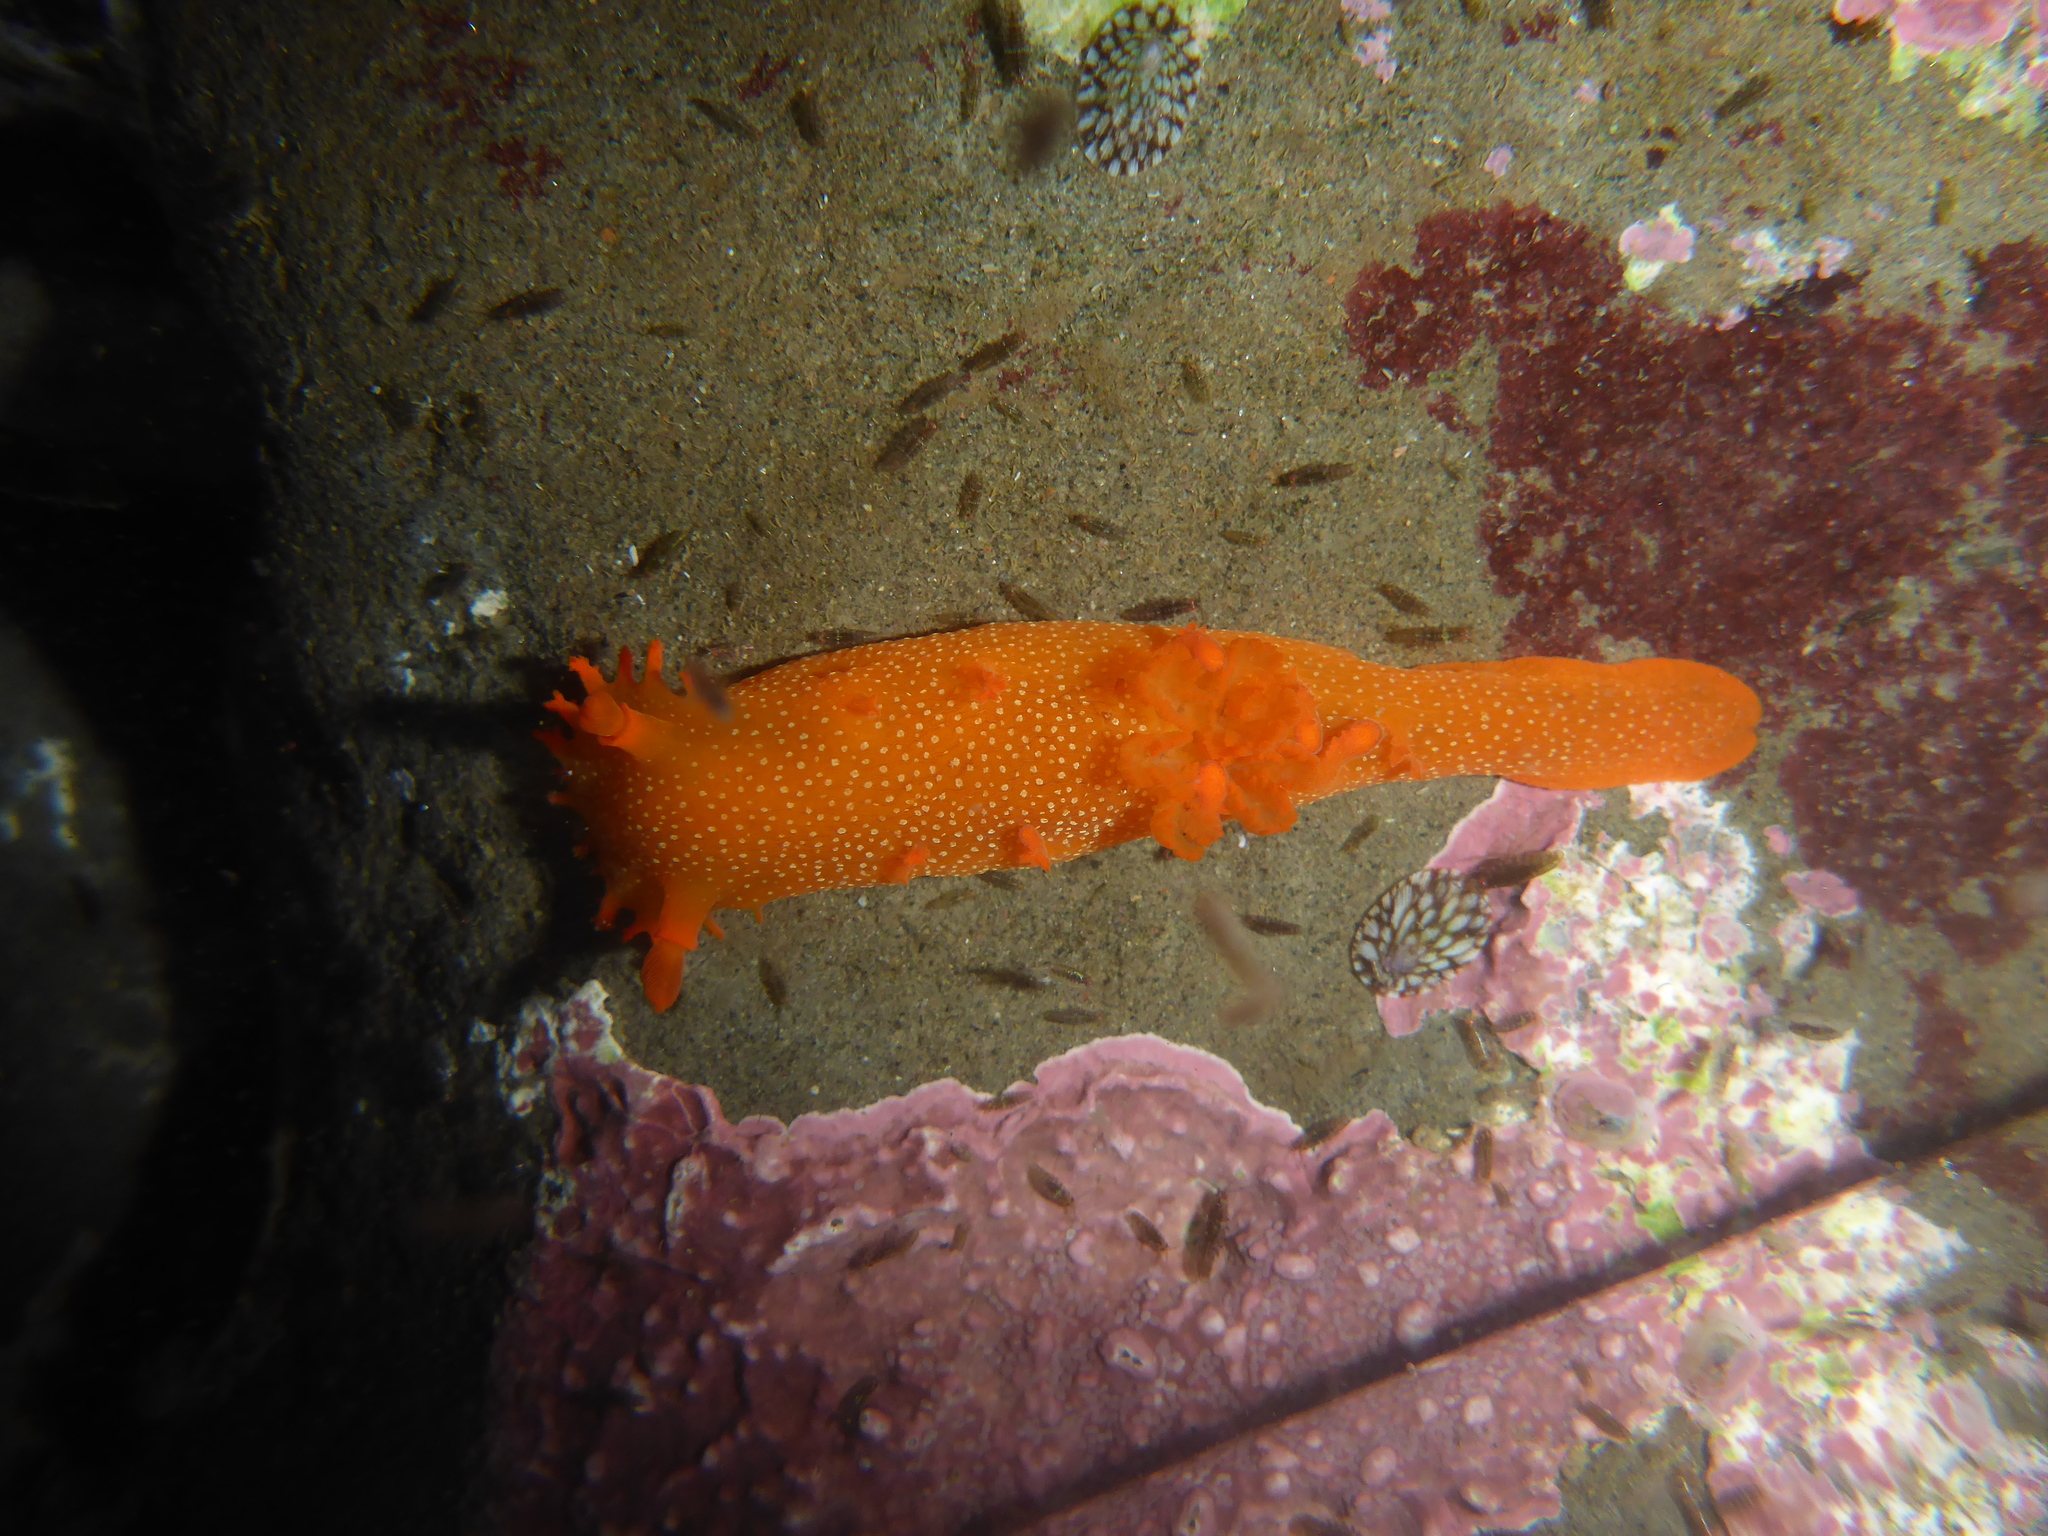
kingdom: Animalia
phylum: Mollusca
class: Gastropoda
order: Nudibranchia
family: Polyceridae
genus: Triopha
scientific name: Triopha maculata
